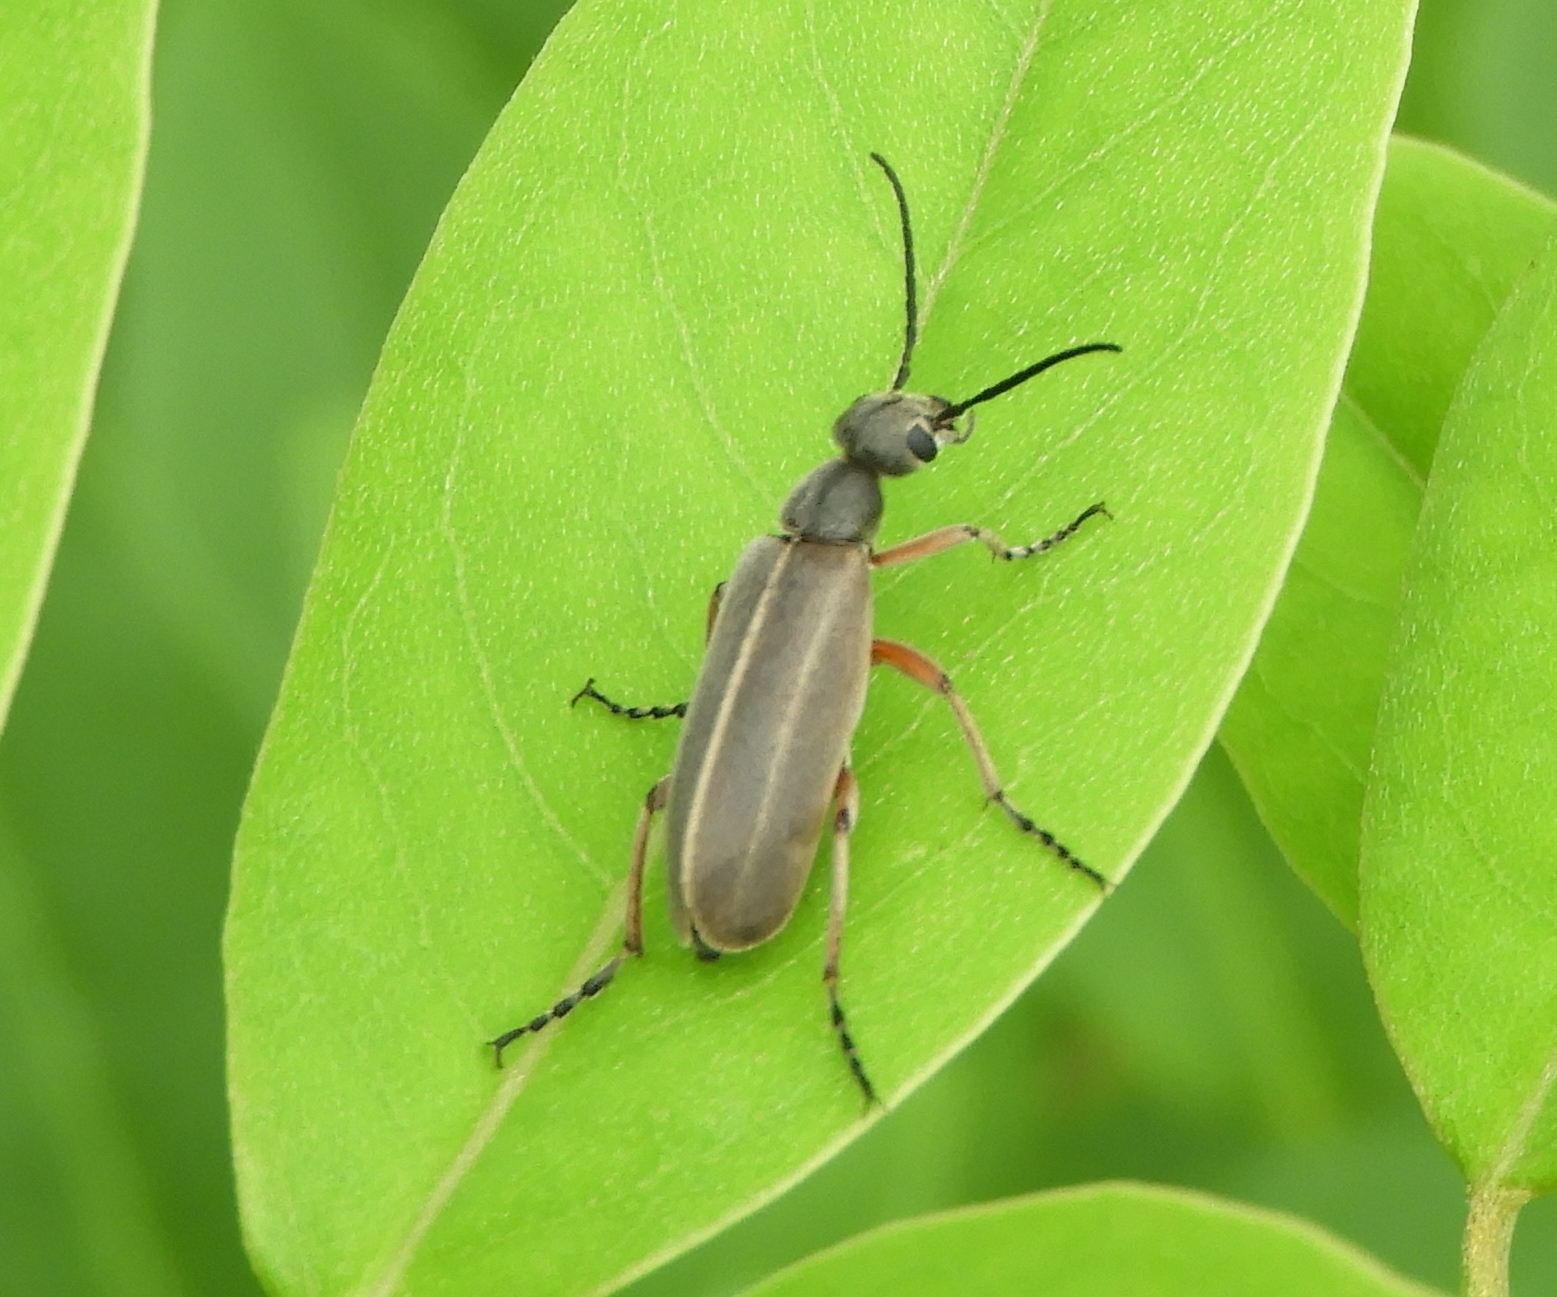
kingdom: Animalia
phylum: Arthropoda
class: Insecta
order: Coleoptera
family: Meloidae
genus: Epicauta
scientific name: Epicauta cupraeola
